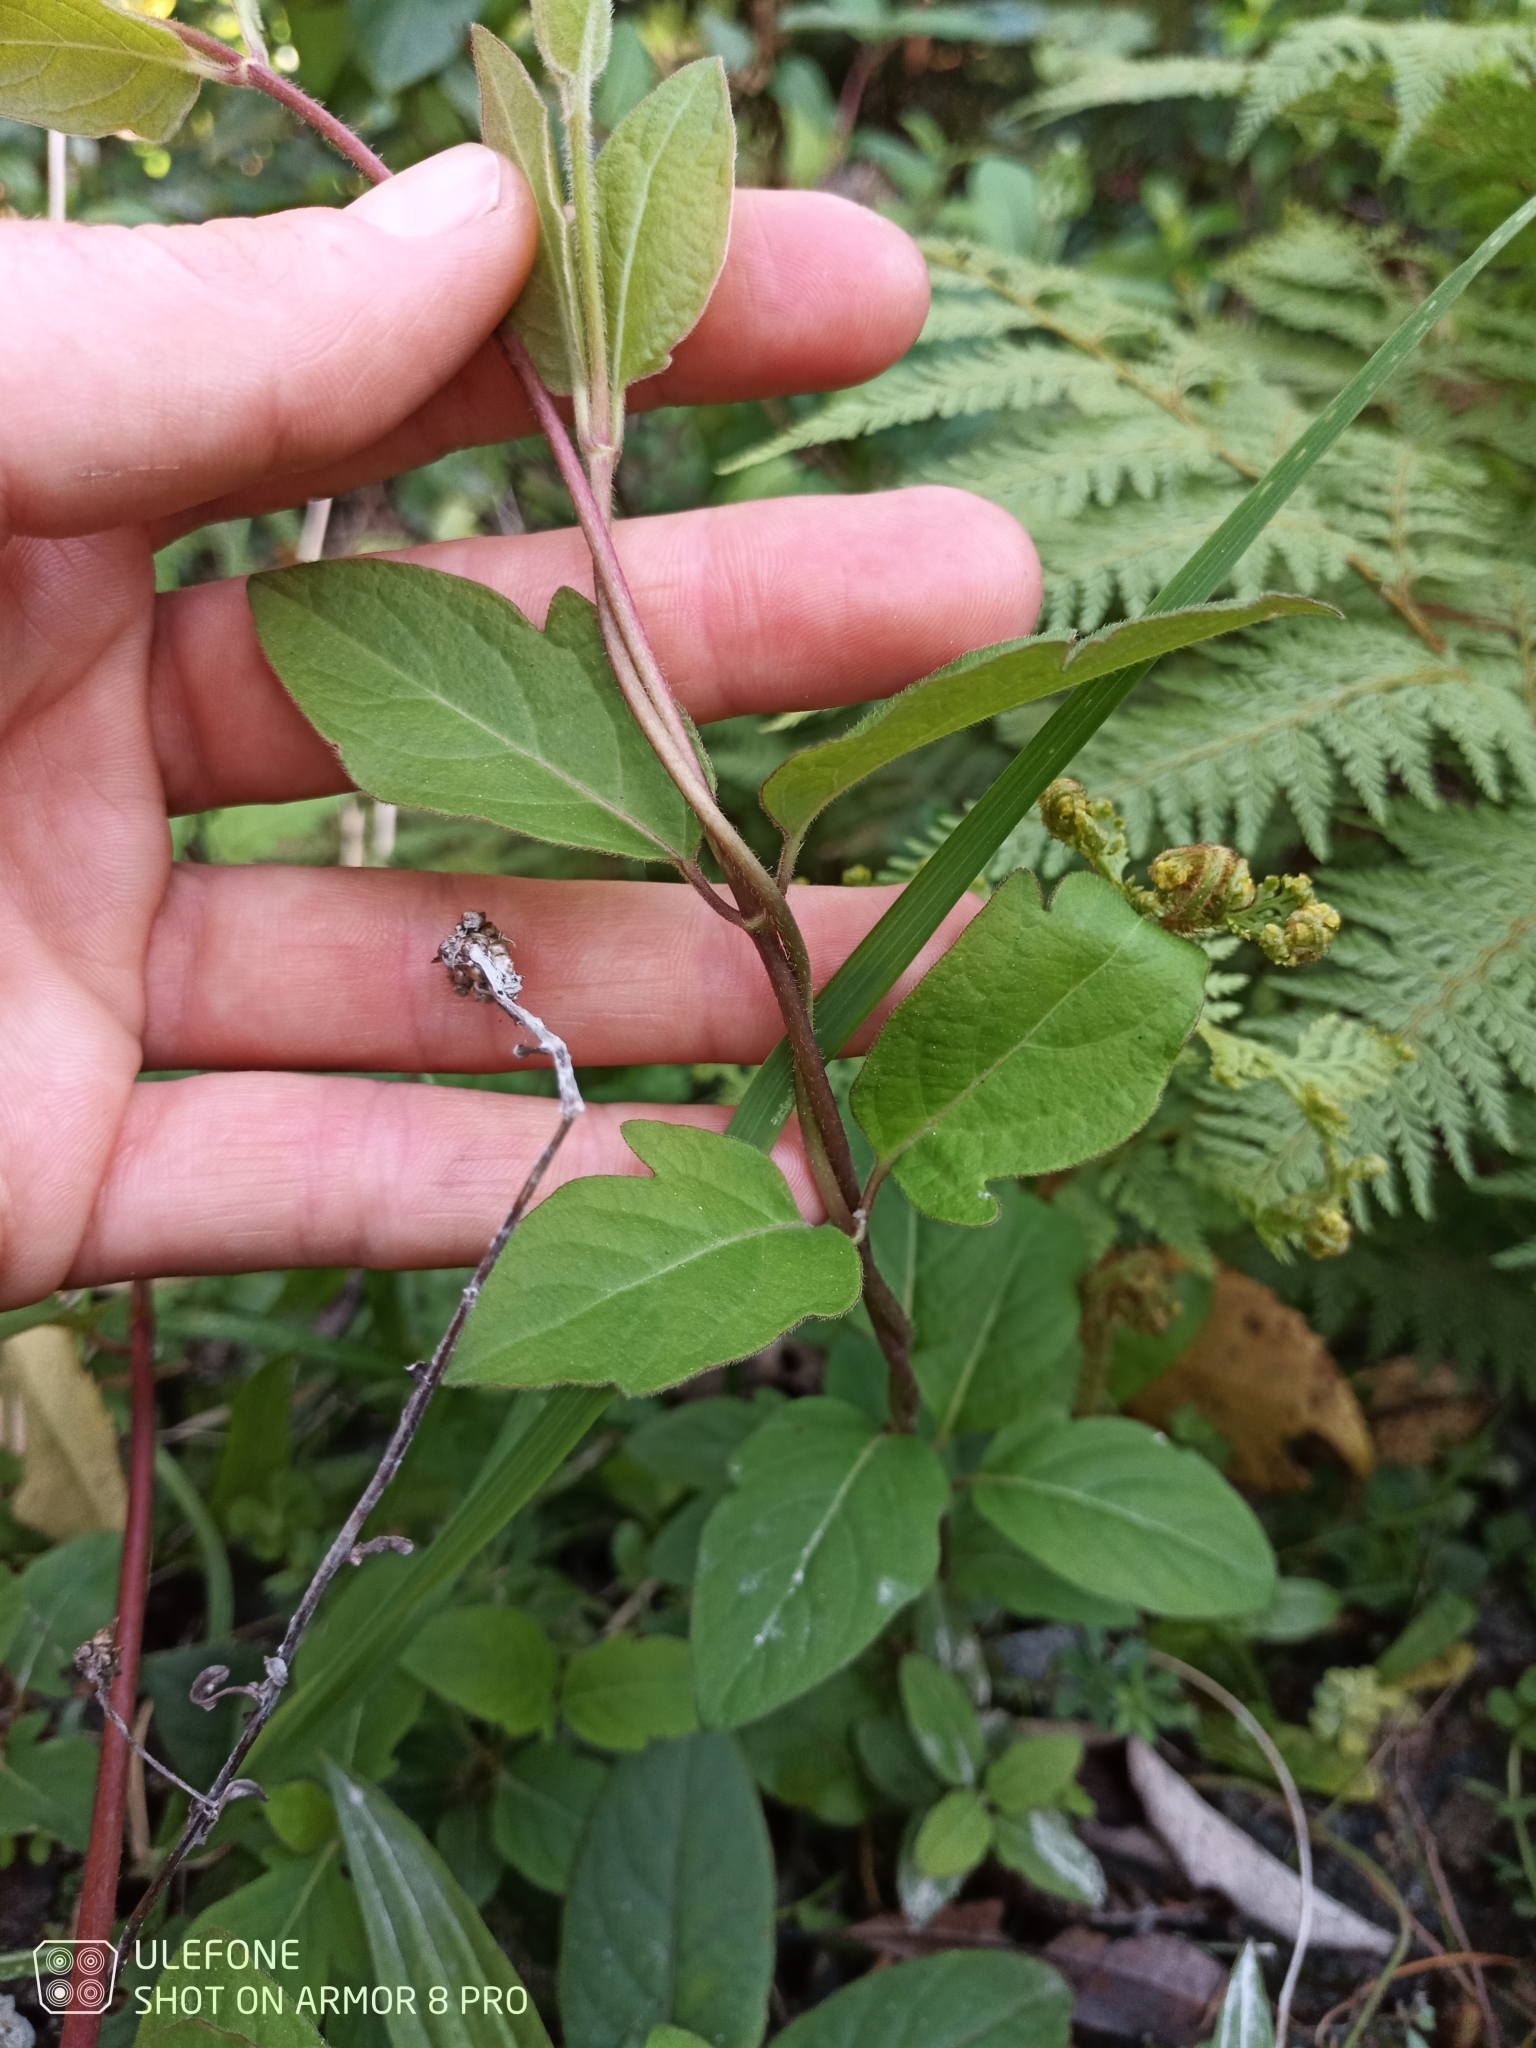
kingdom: Plantae
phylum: Tracheophyta
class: Magnoliopsida
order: Dipsacales
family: Caprifoliaceae
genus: Lonicera
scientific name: Lonicera japonica
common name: Japanese honeysuckle
